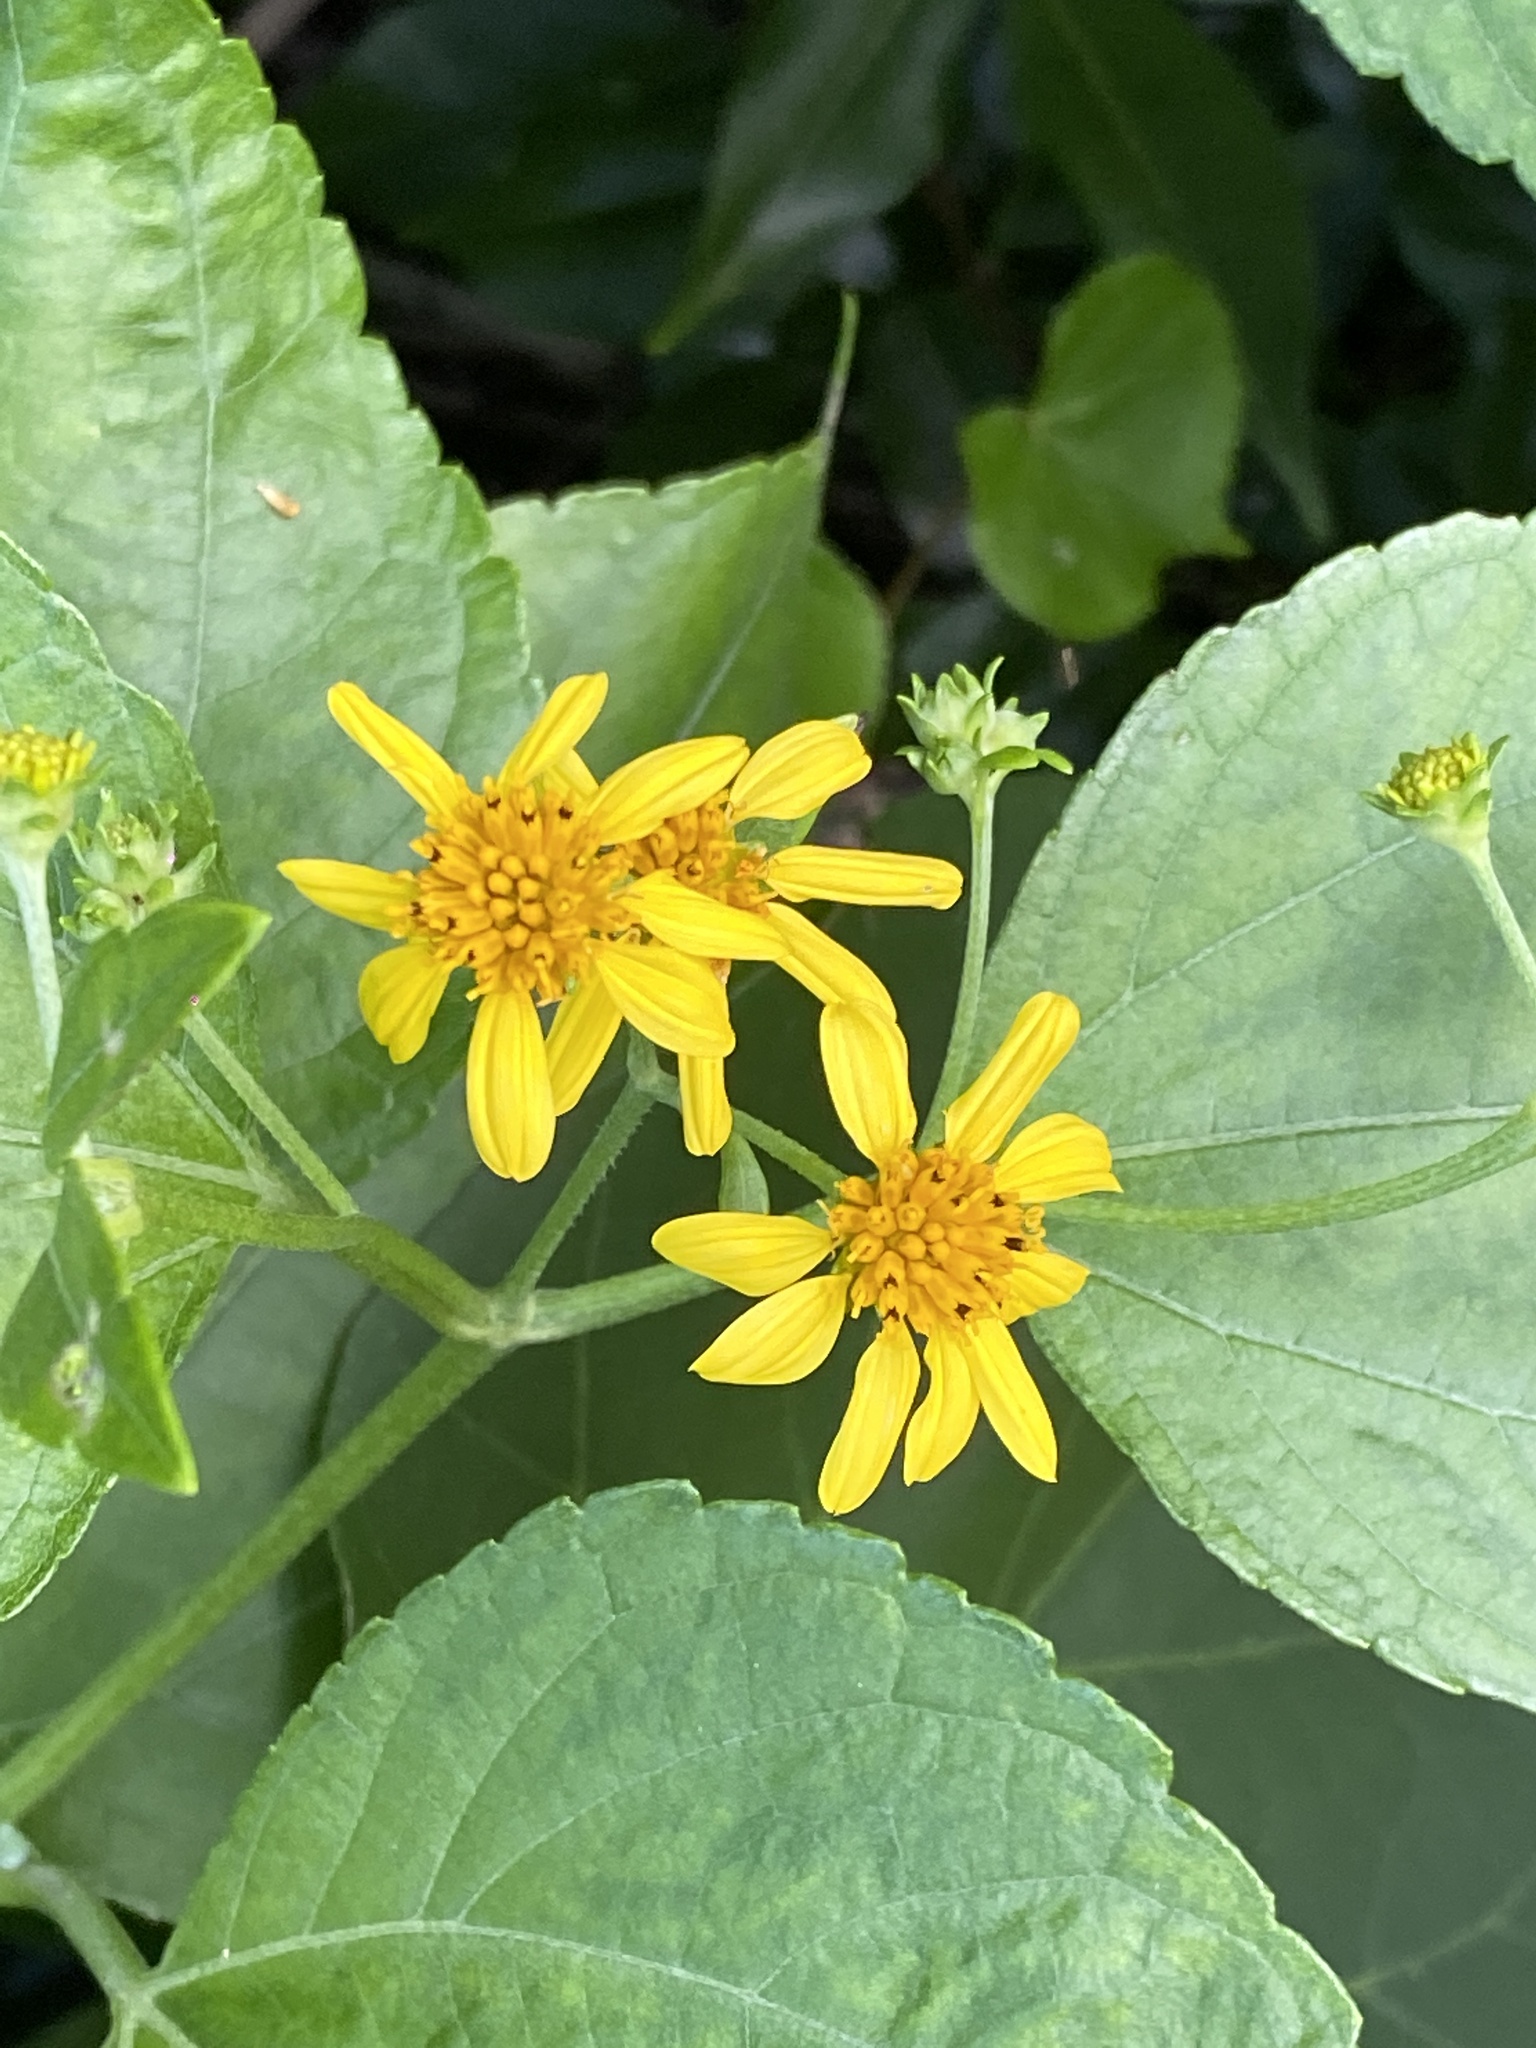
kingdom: Plantae
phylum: Tracheophyta
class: Magnoliopsida
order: Asterales
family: Asteraceae
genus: Wollastonia
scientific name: Wollastonia biflora
